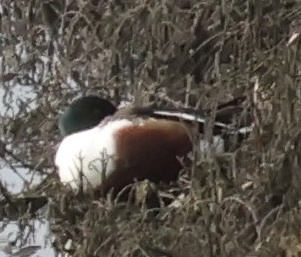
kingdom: Animalia
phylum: Chordata
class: Aves
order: Anseriformes
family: Anatidae
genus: Spatula
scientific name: Spatula clypeata
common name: Northern shoveler
